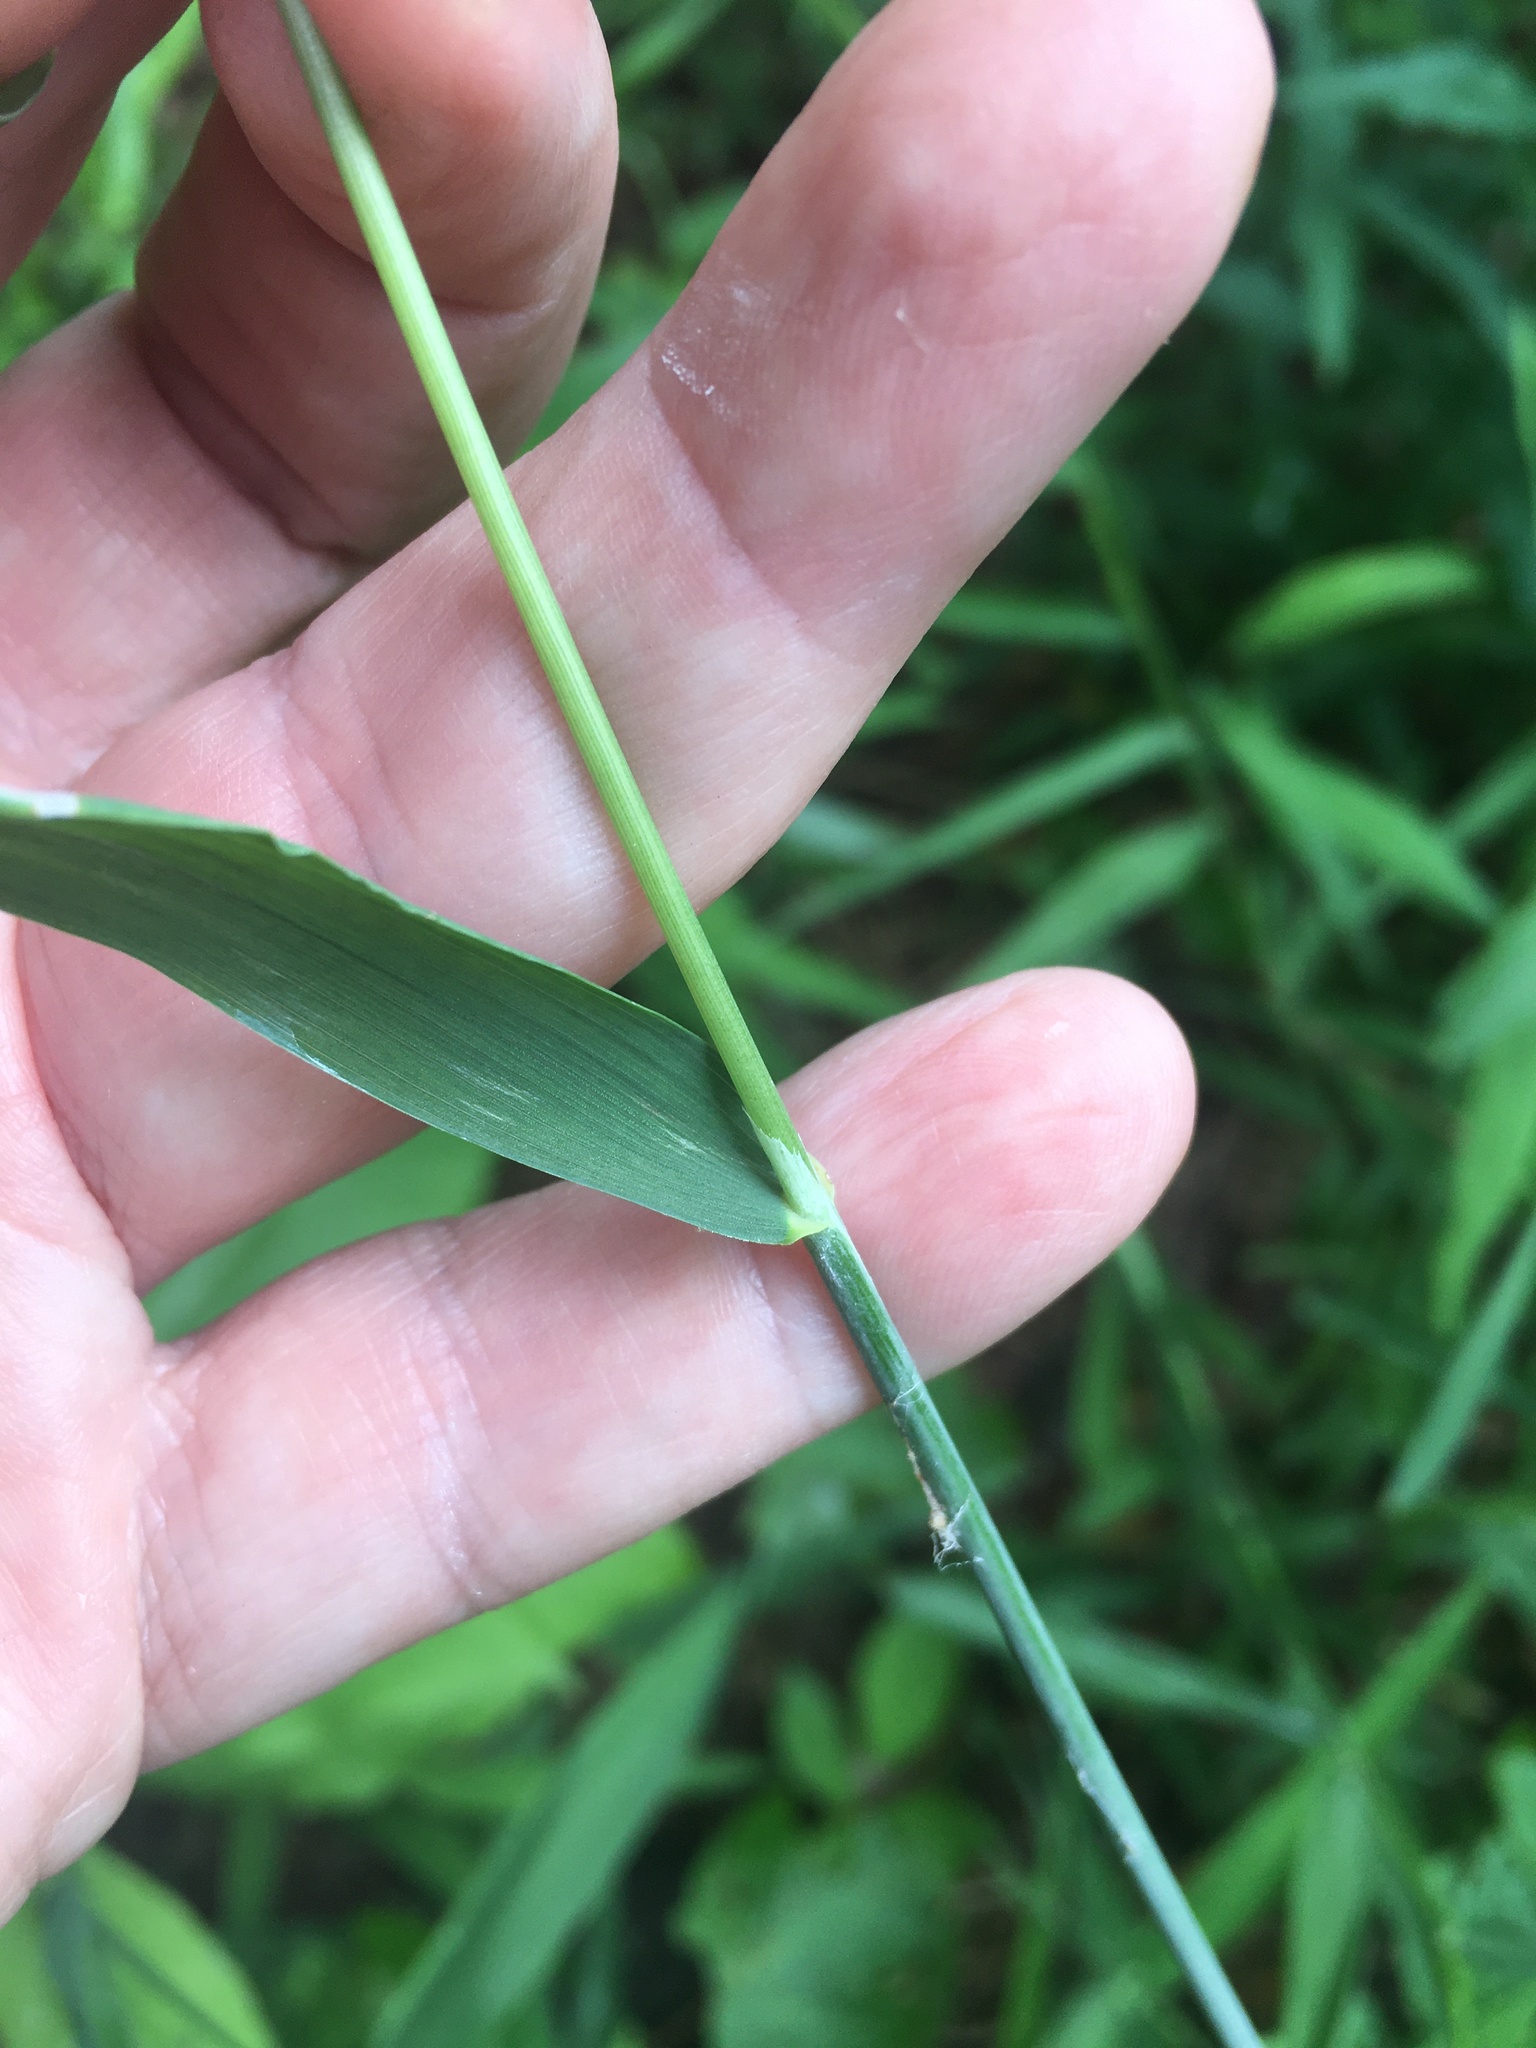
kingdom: Plantae
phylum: Tracheophyta
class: Liliopsida
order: Poales
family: Poaceae
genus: Milium
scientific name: Milium effusum
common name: Wood millet
